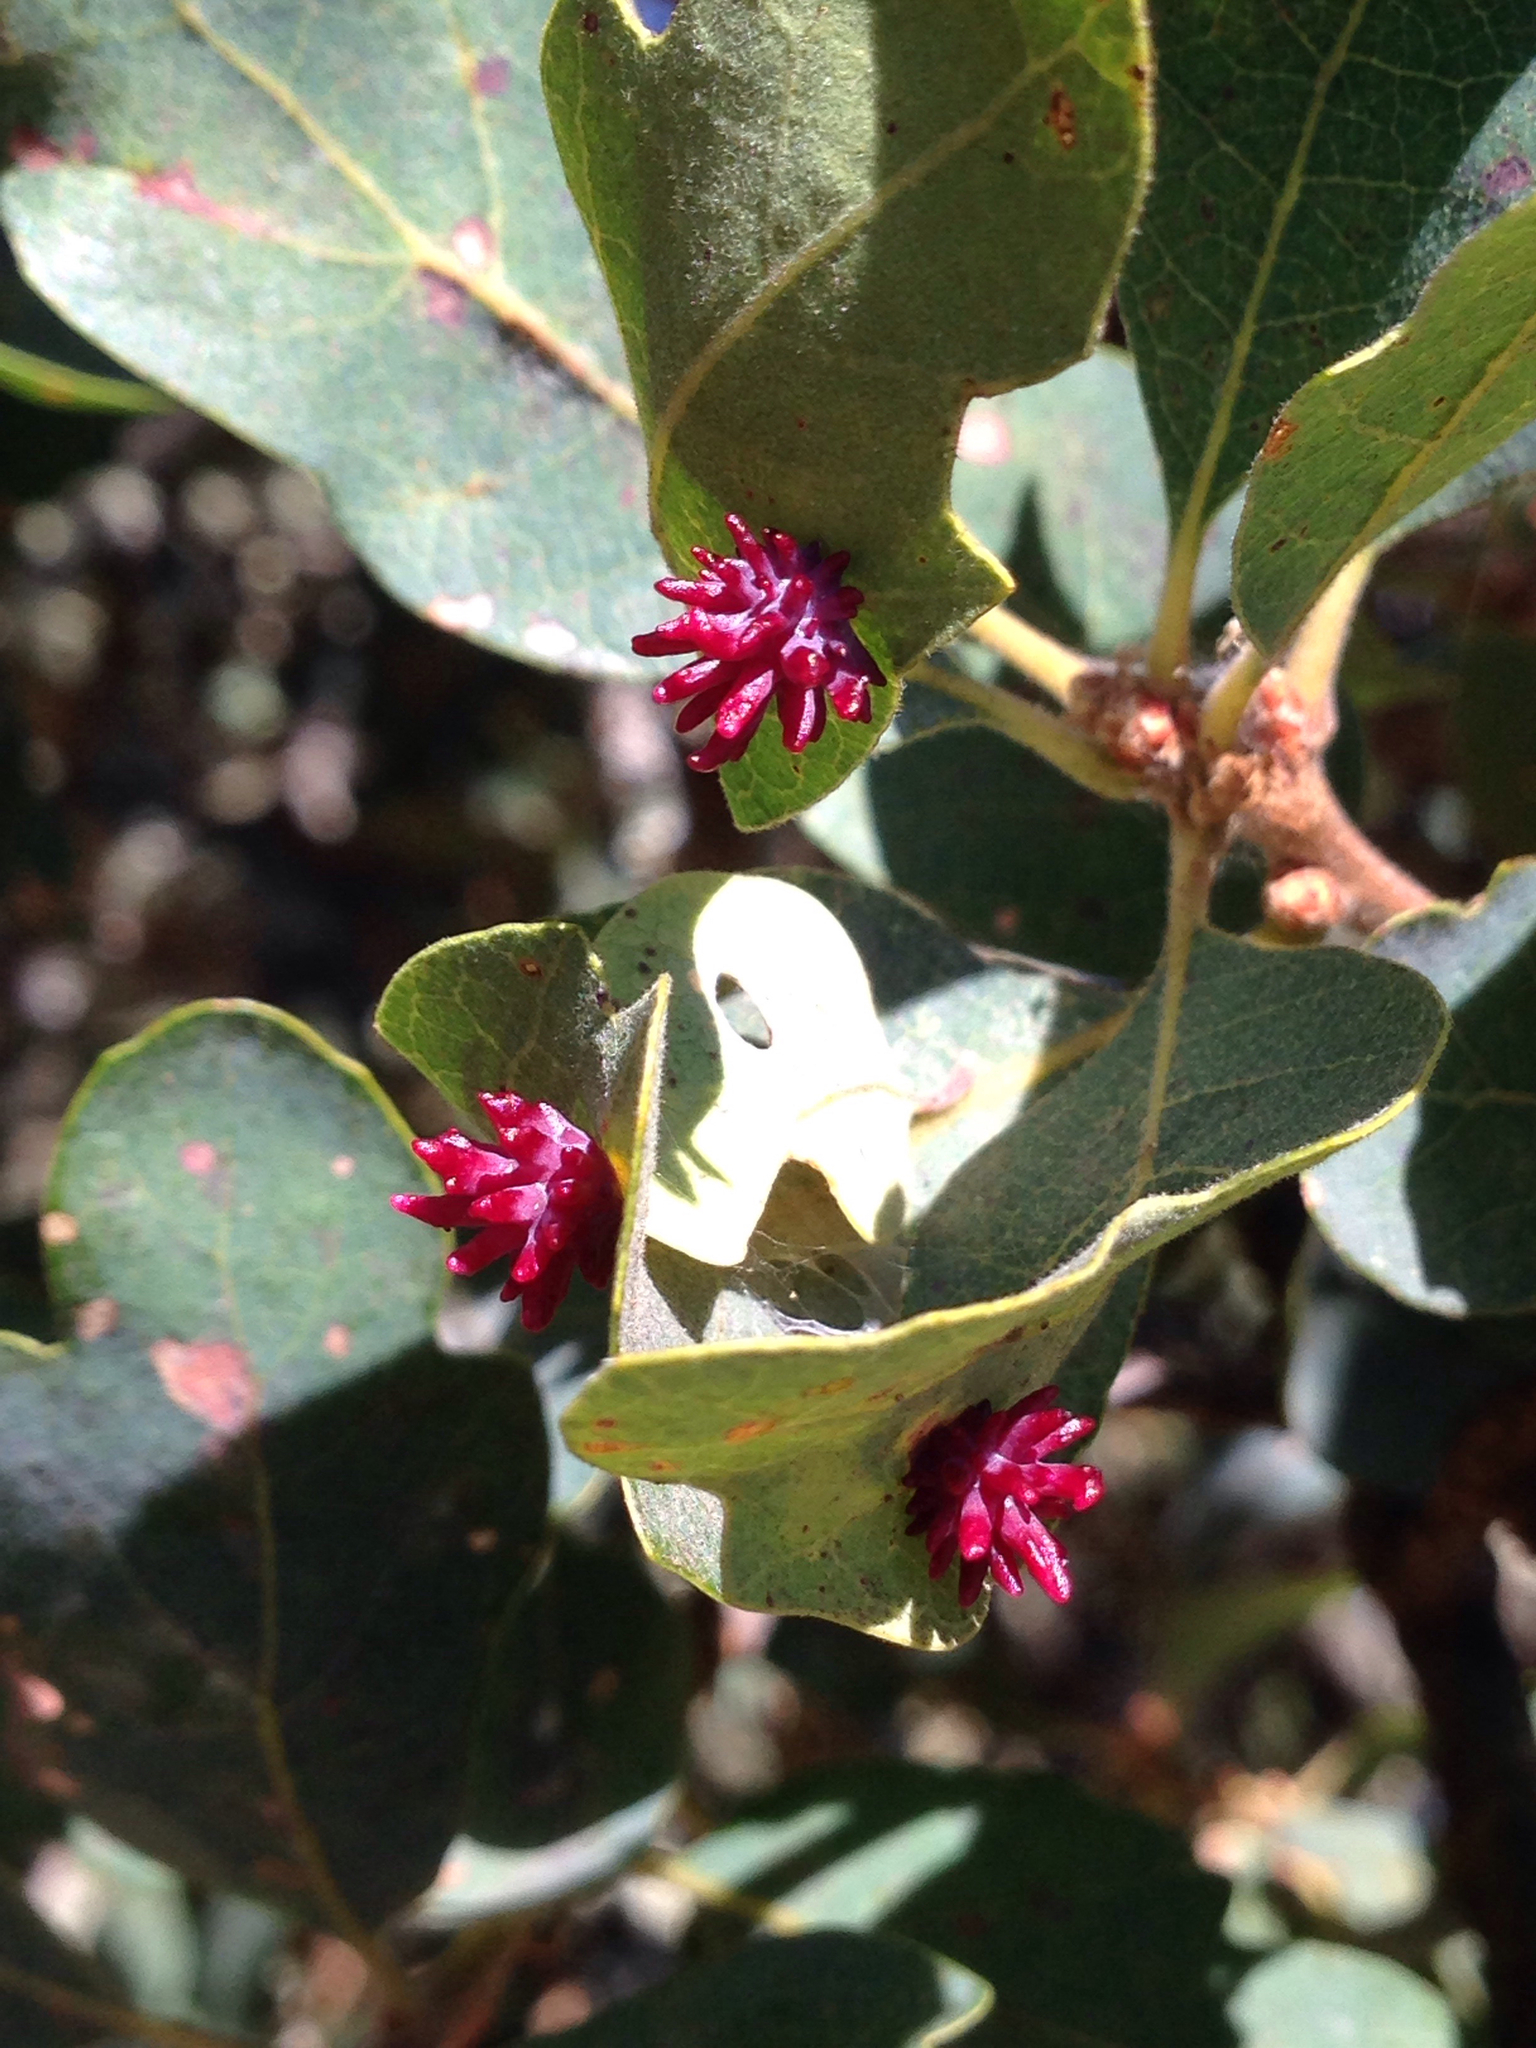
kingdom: Animalia
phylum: Arthropoda
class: Insecta
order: Hymenoptera
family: Cynipidae
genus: Cynips
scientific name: Cynips
